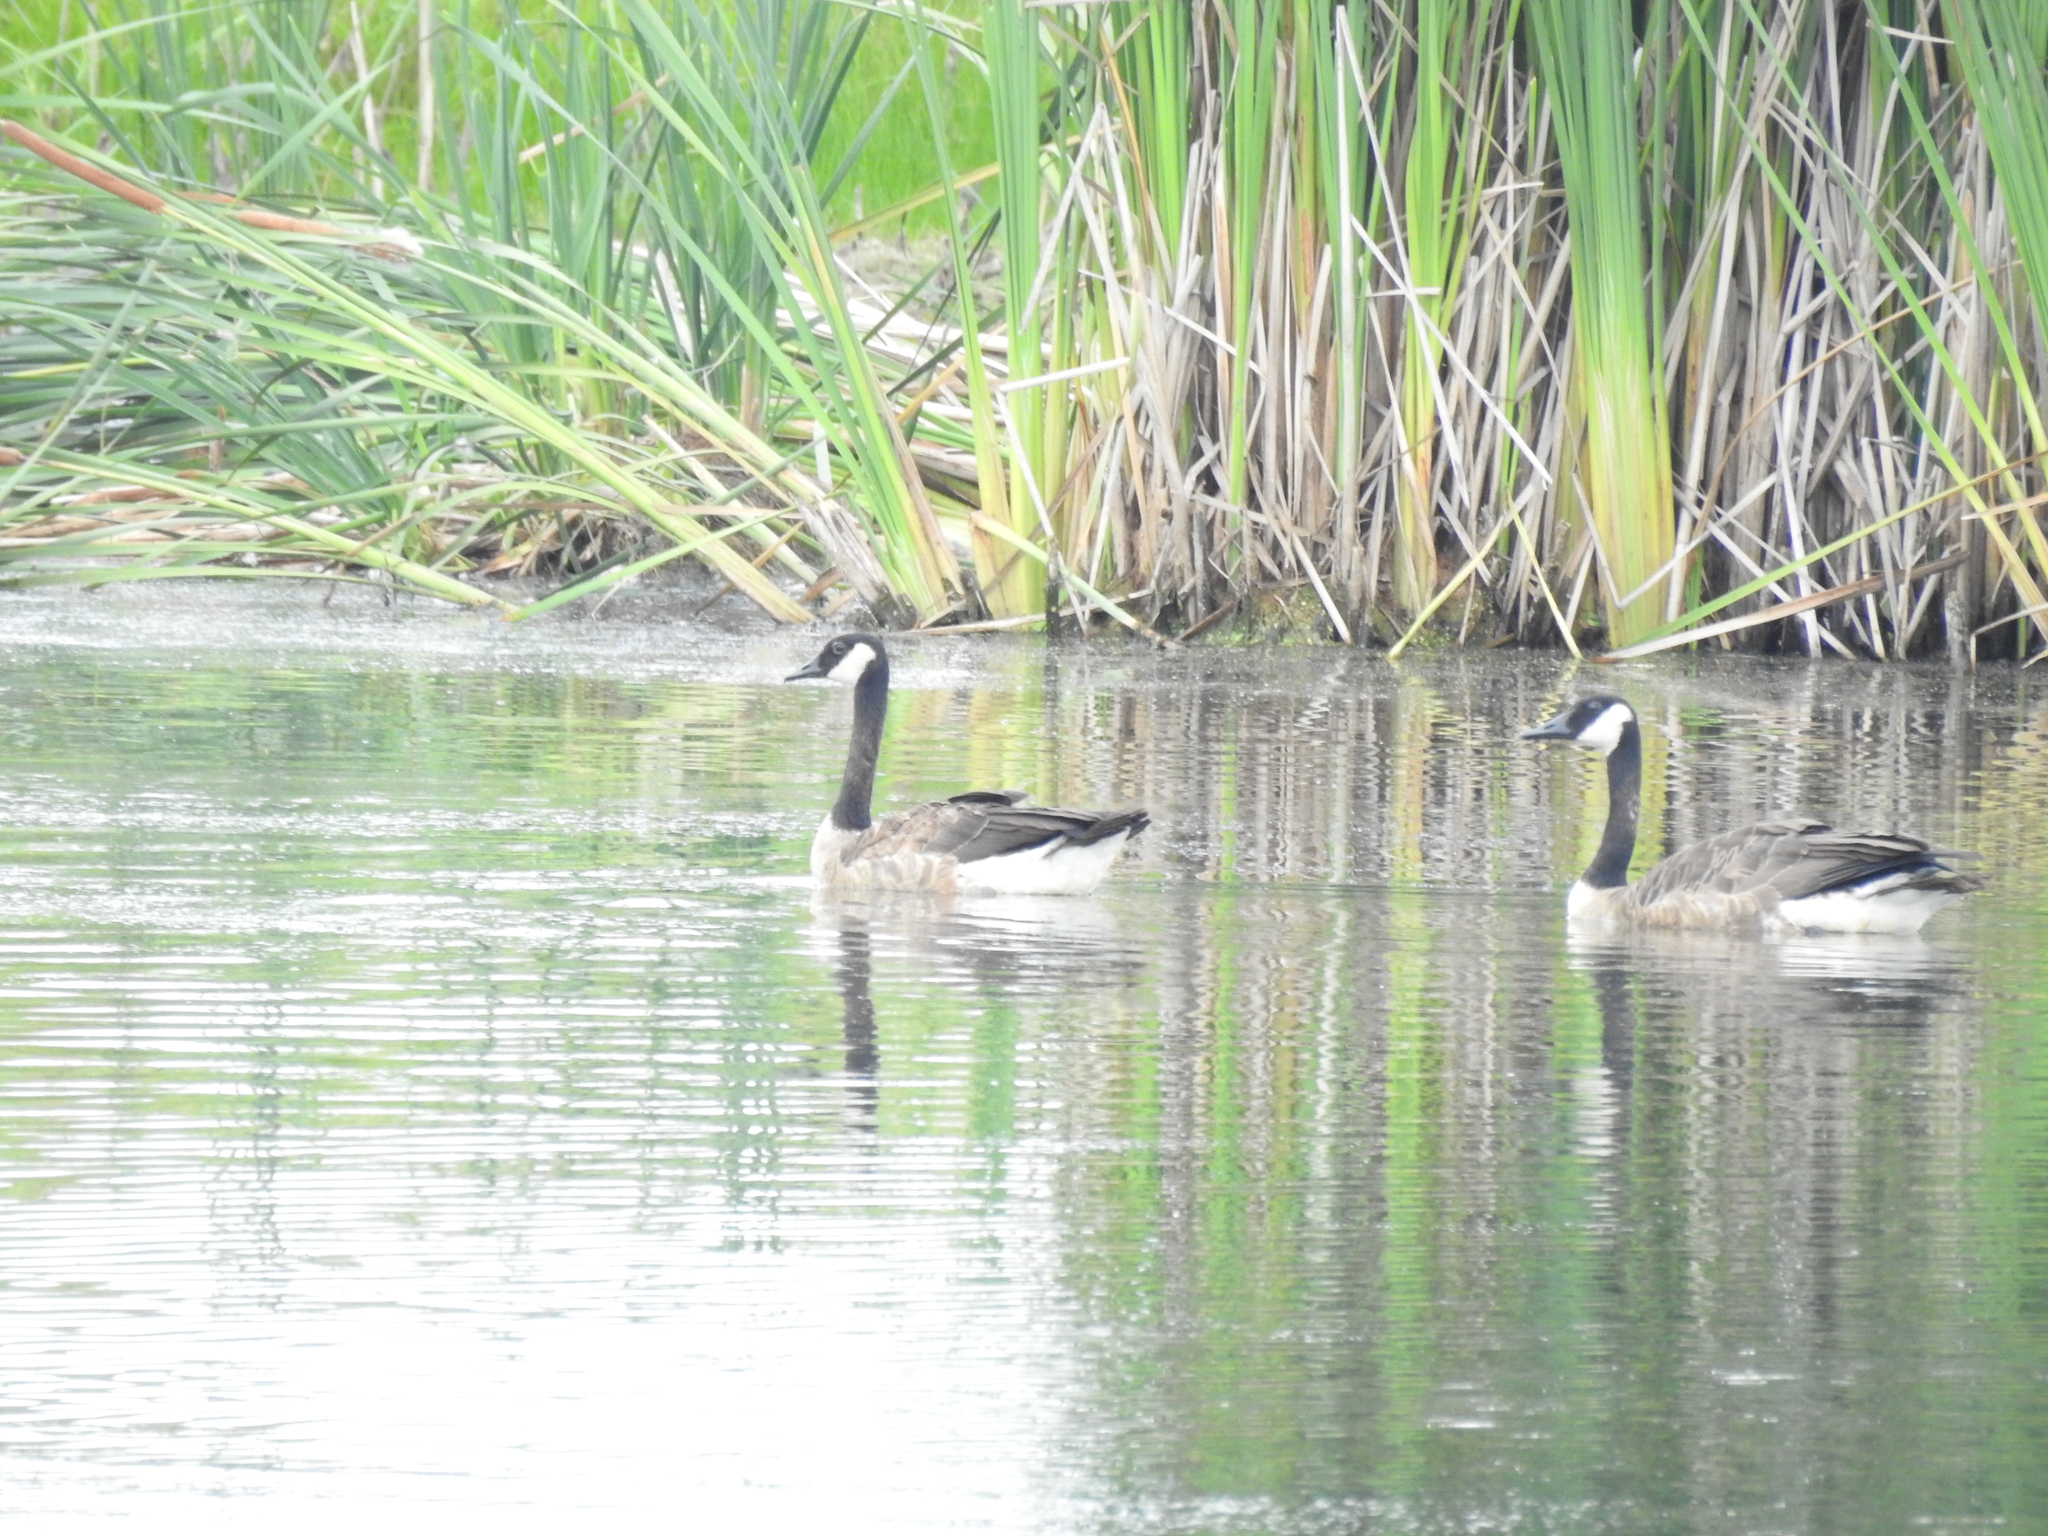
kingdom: Animalia
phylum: Chordata
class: Aves
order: Anseriformes
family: Anatidae
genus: Branta
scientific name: Branta canadensis
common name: Canada goose
